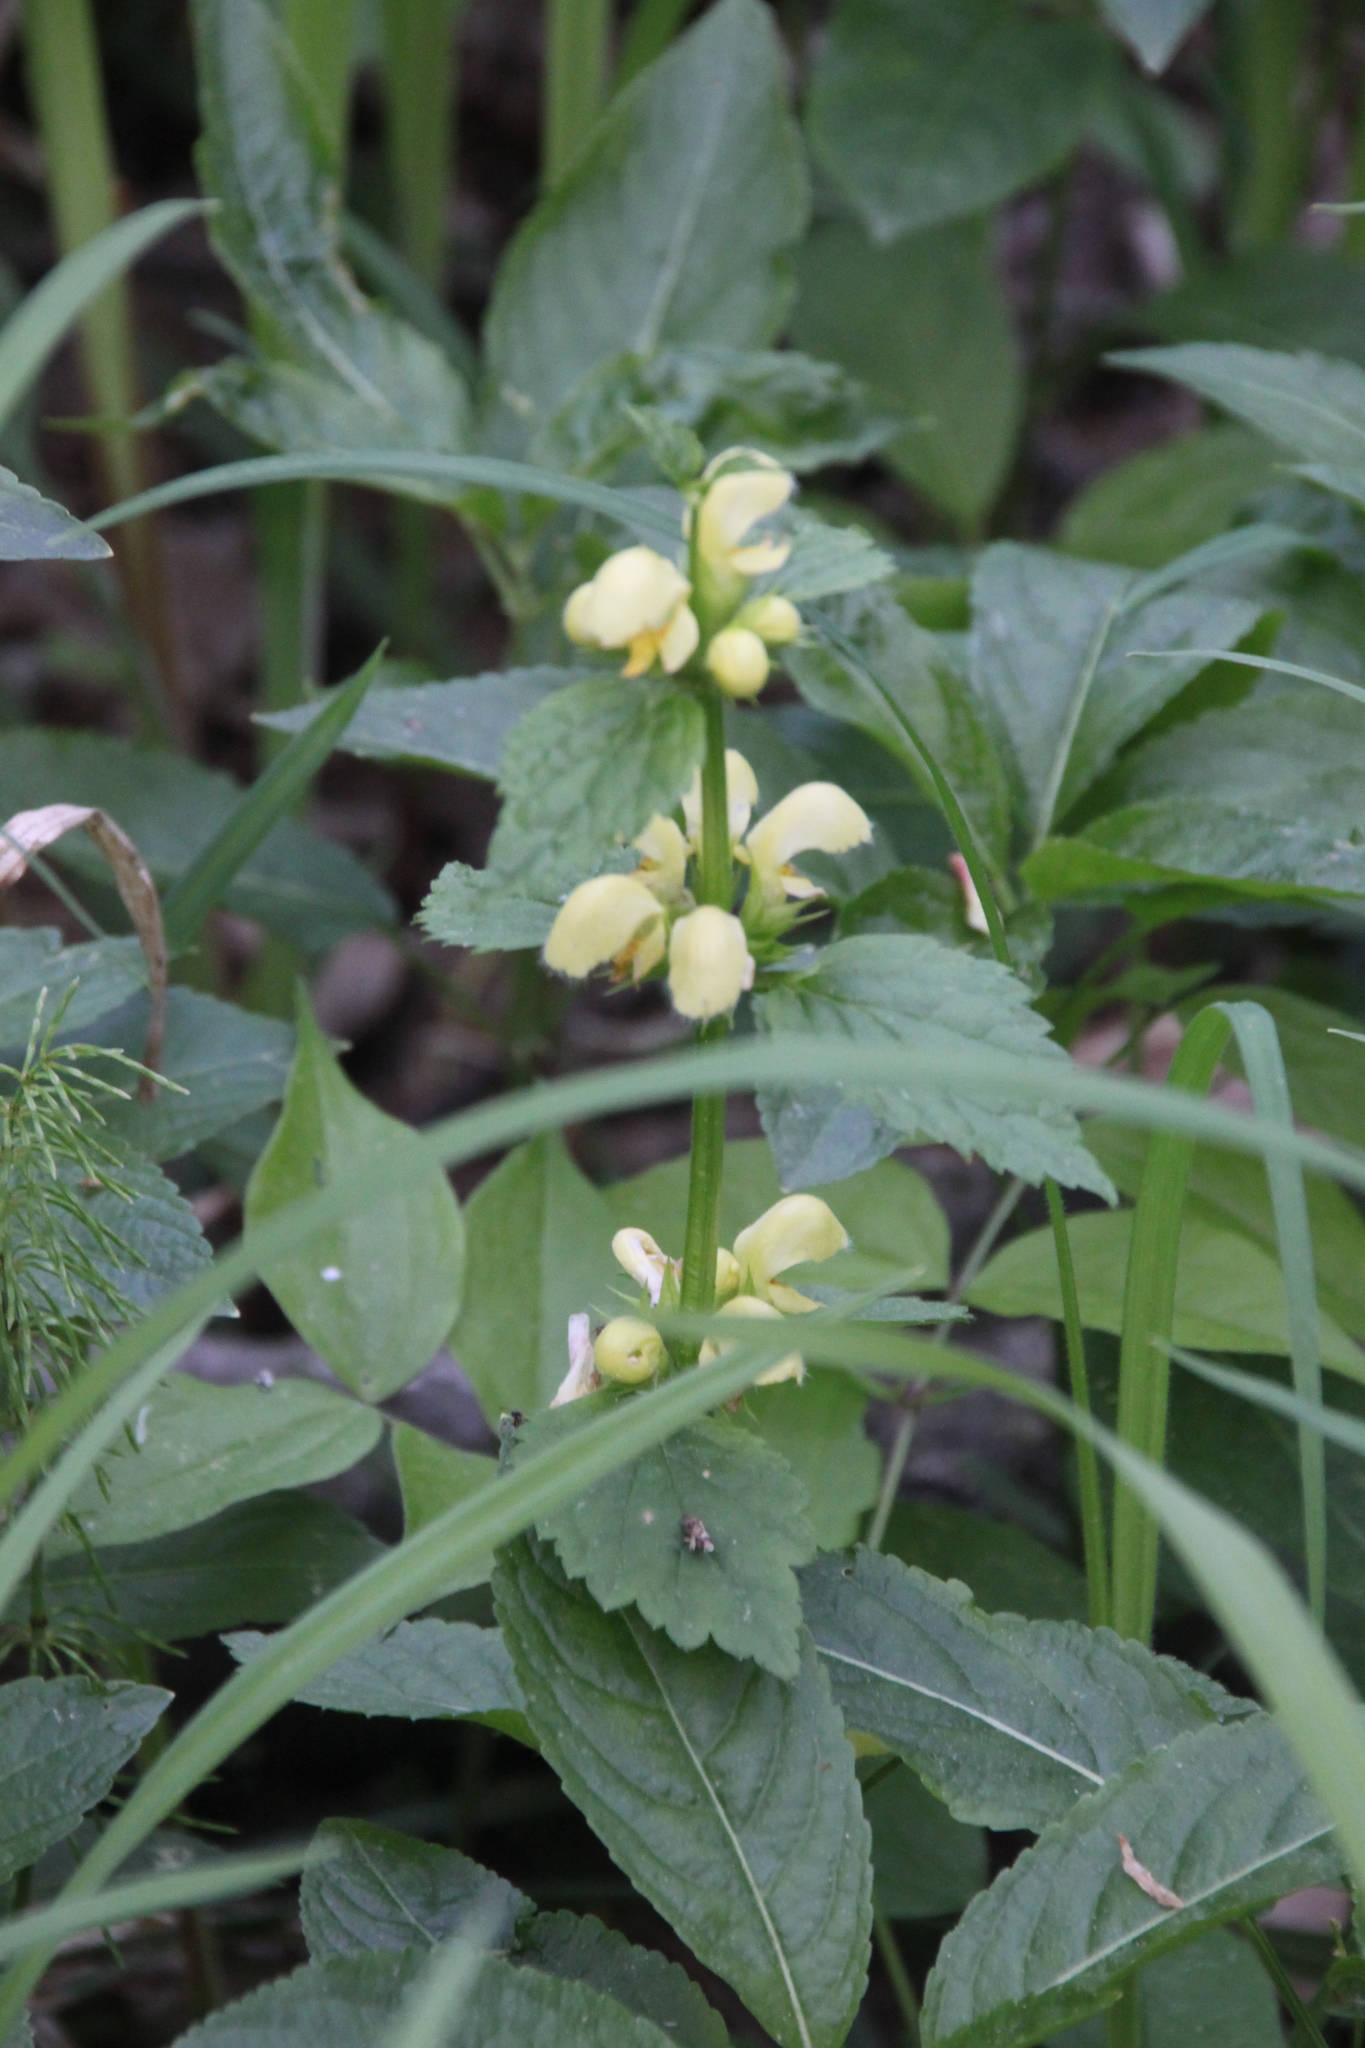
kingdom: Plantae
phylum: Tracheophyta
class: Magnoliopsida
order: Lamiales
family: Lamiaceae
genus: Lamium
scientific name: Lamium galeobdolon
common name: Yellow archangel
